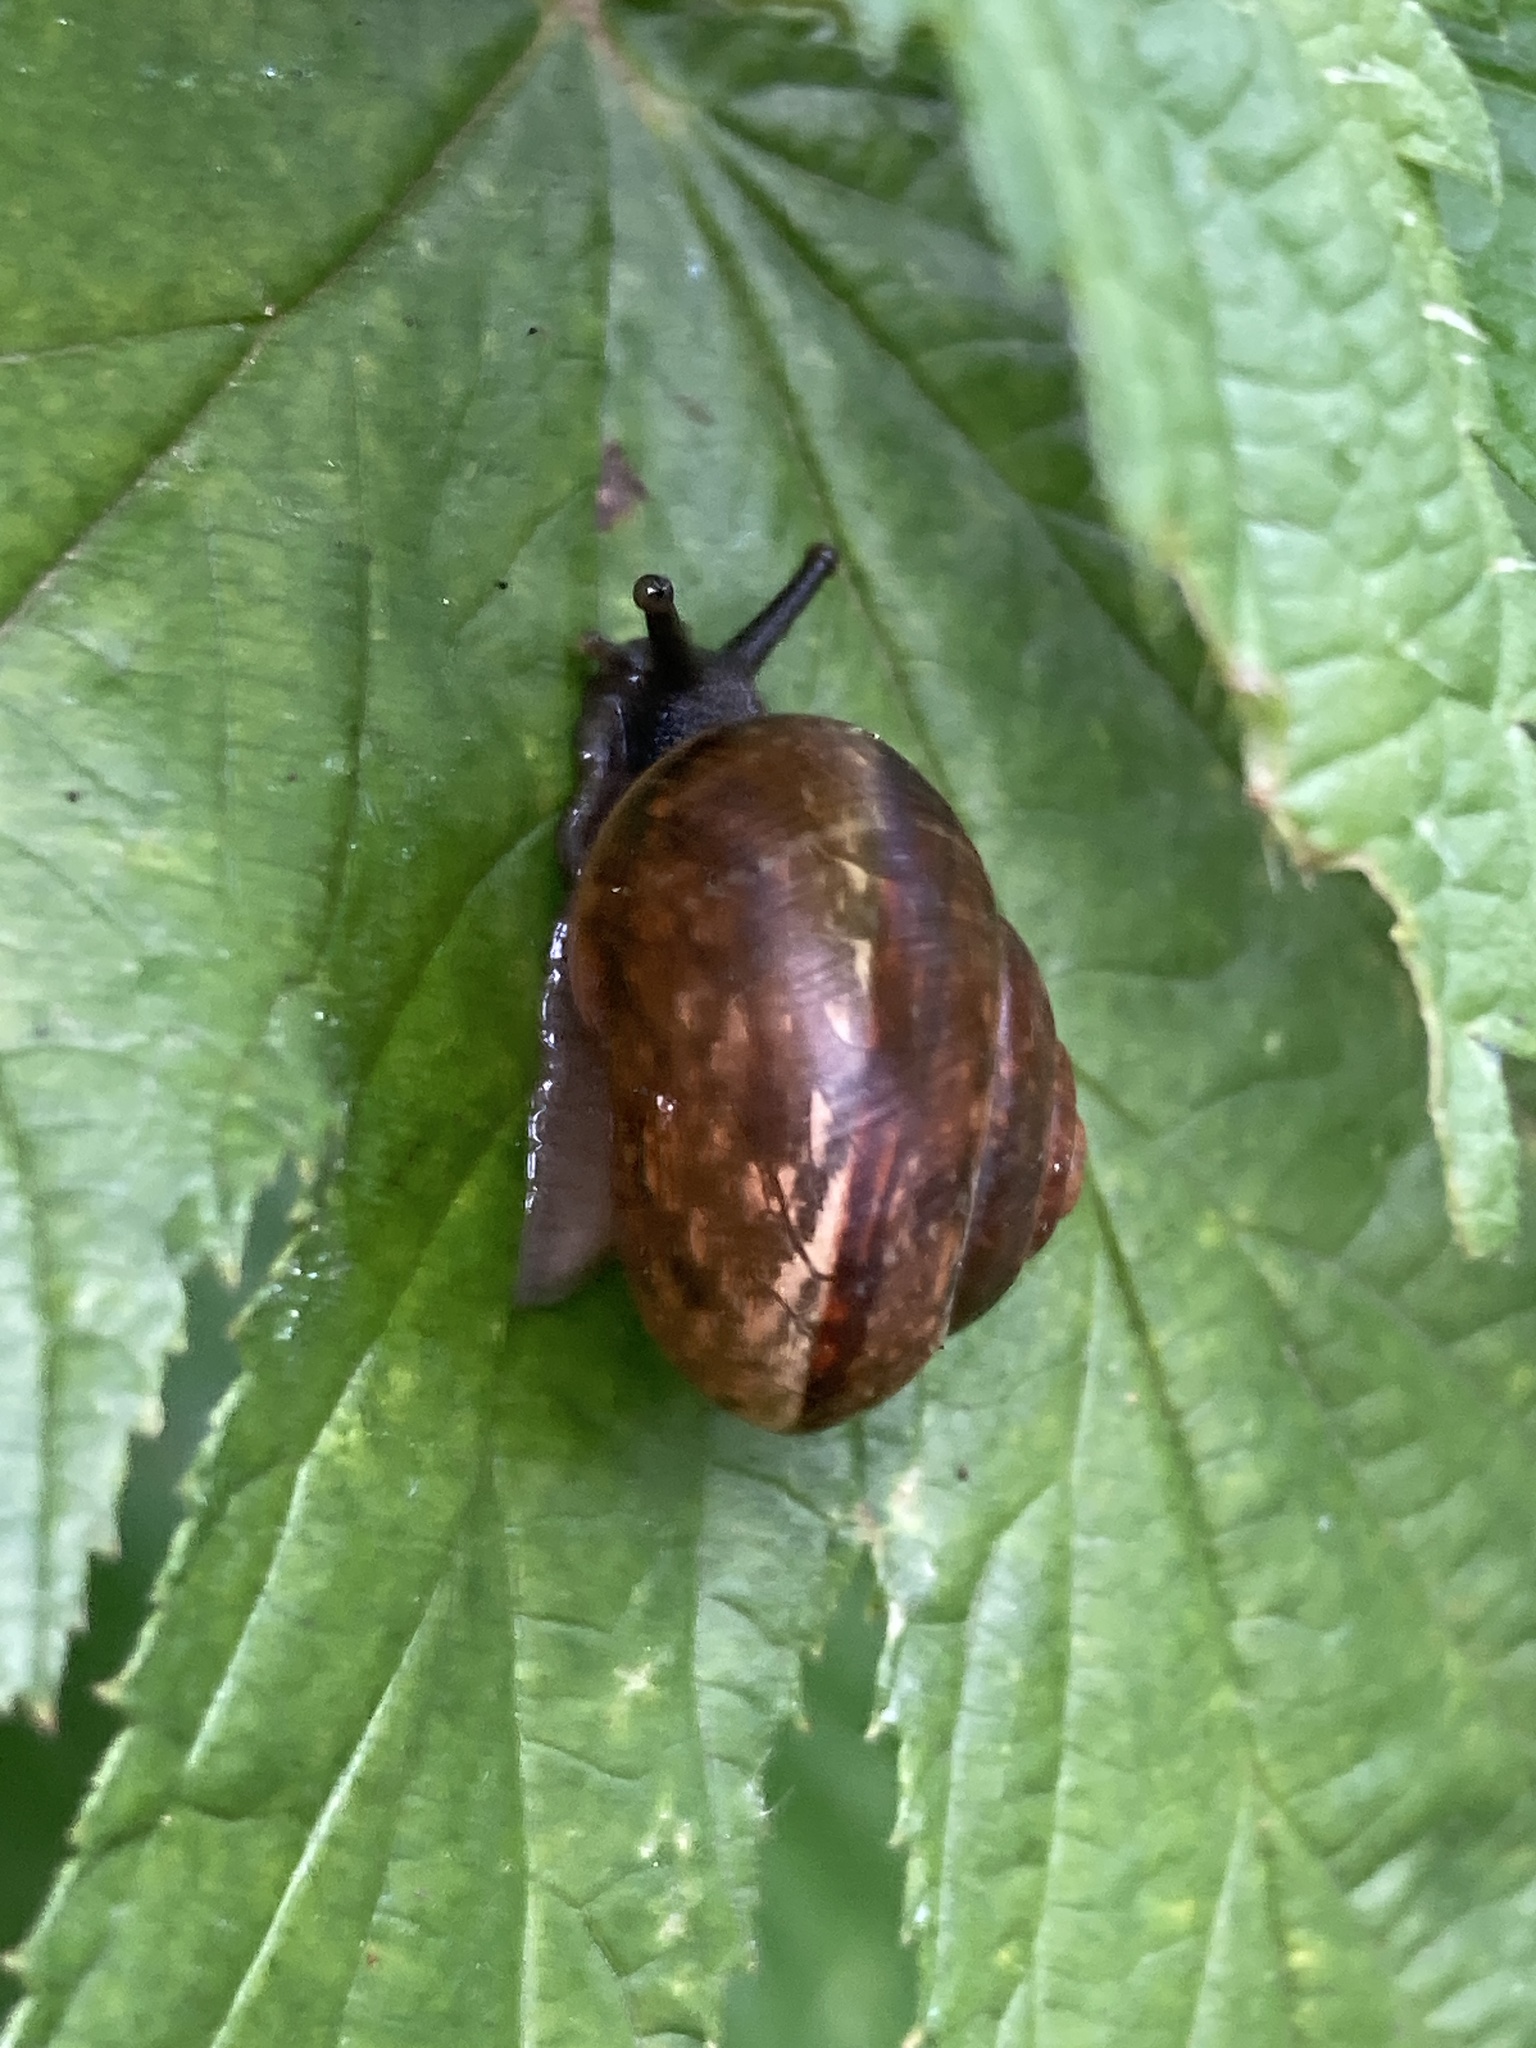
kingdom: Animalia
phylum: Mollusca
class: Gastropoda
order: Stylommatophora
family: Helicidae
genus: Arianta
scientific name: Arianta arbustorum
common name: Copse snail
